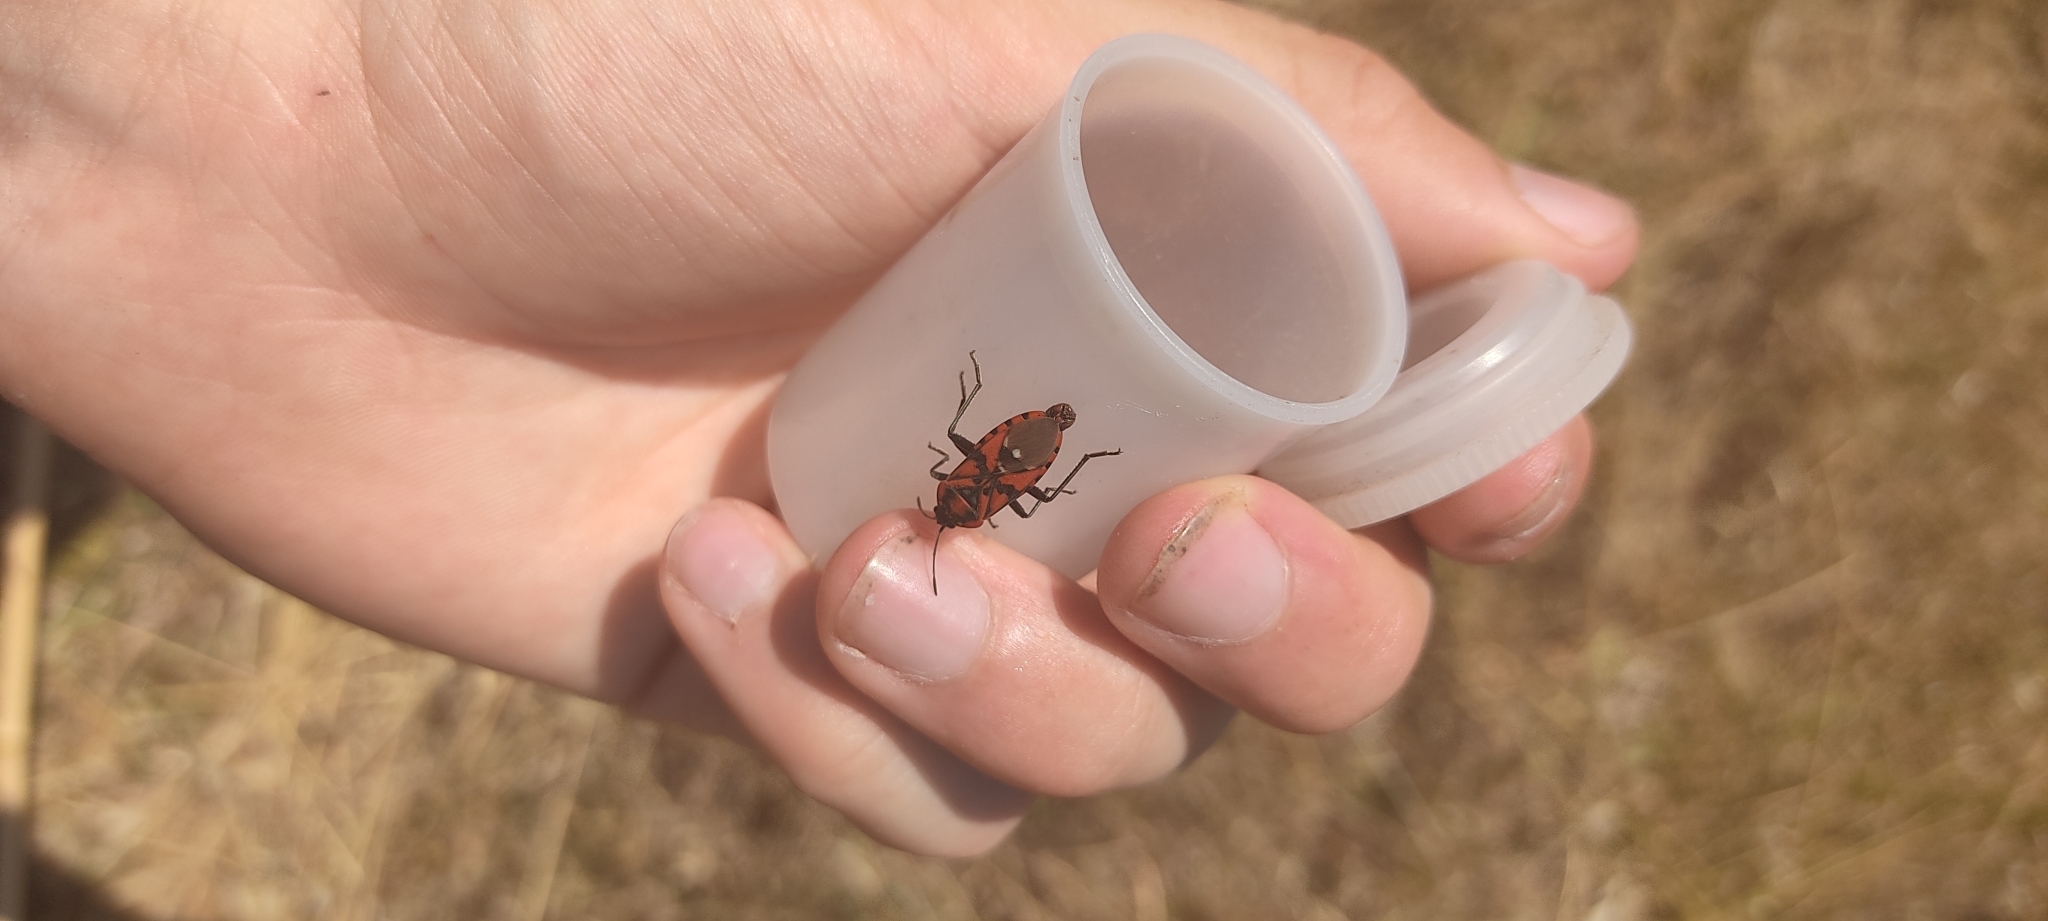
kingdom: Animalia
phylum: Arthropoda
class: Insecta
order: Hemiptera
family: Lygaeidae
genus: Spilostethus
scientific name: Spilostethus pandurus
